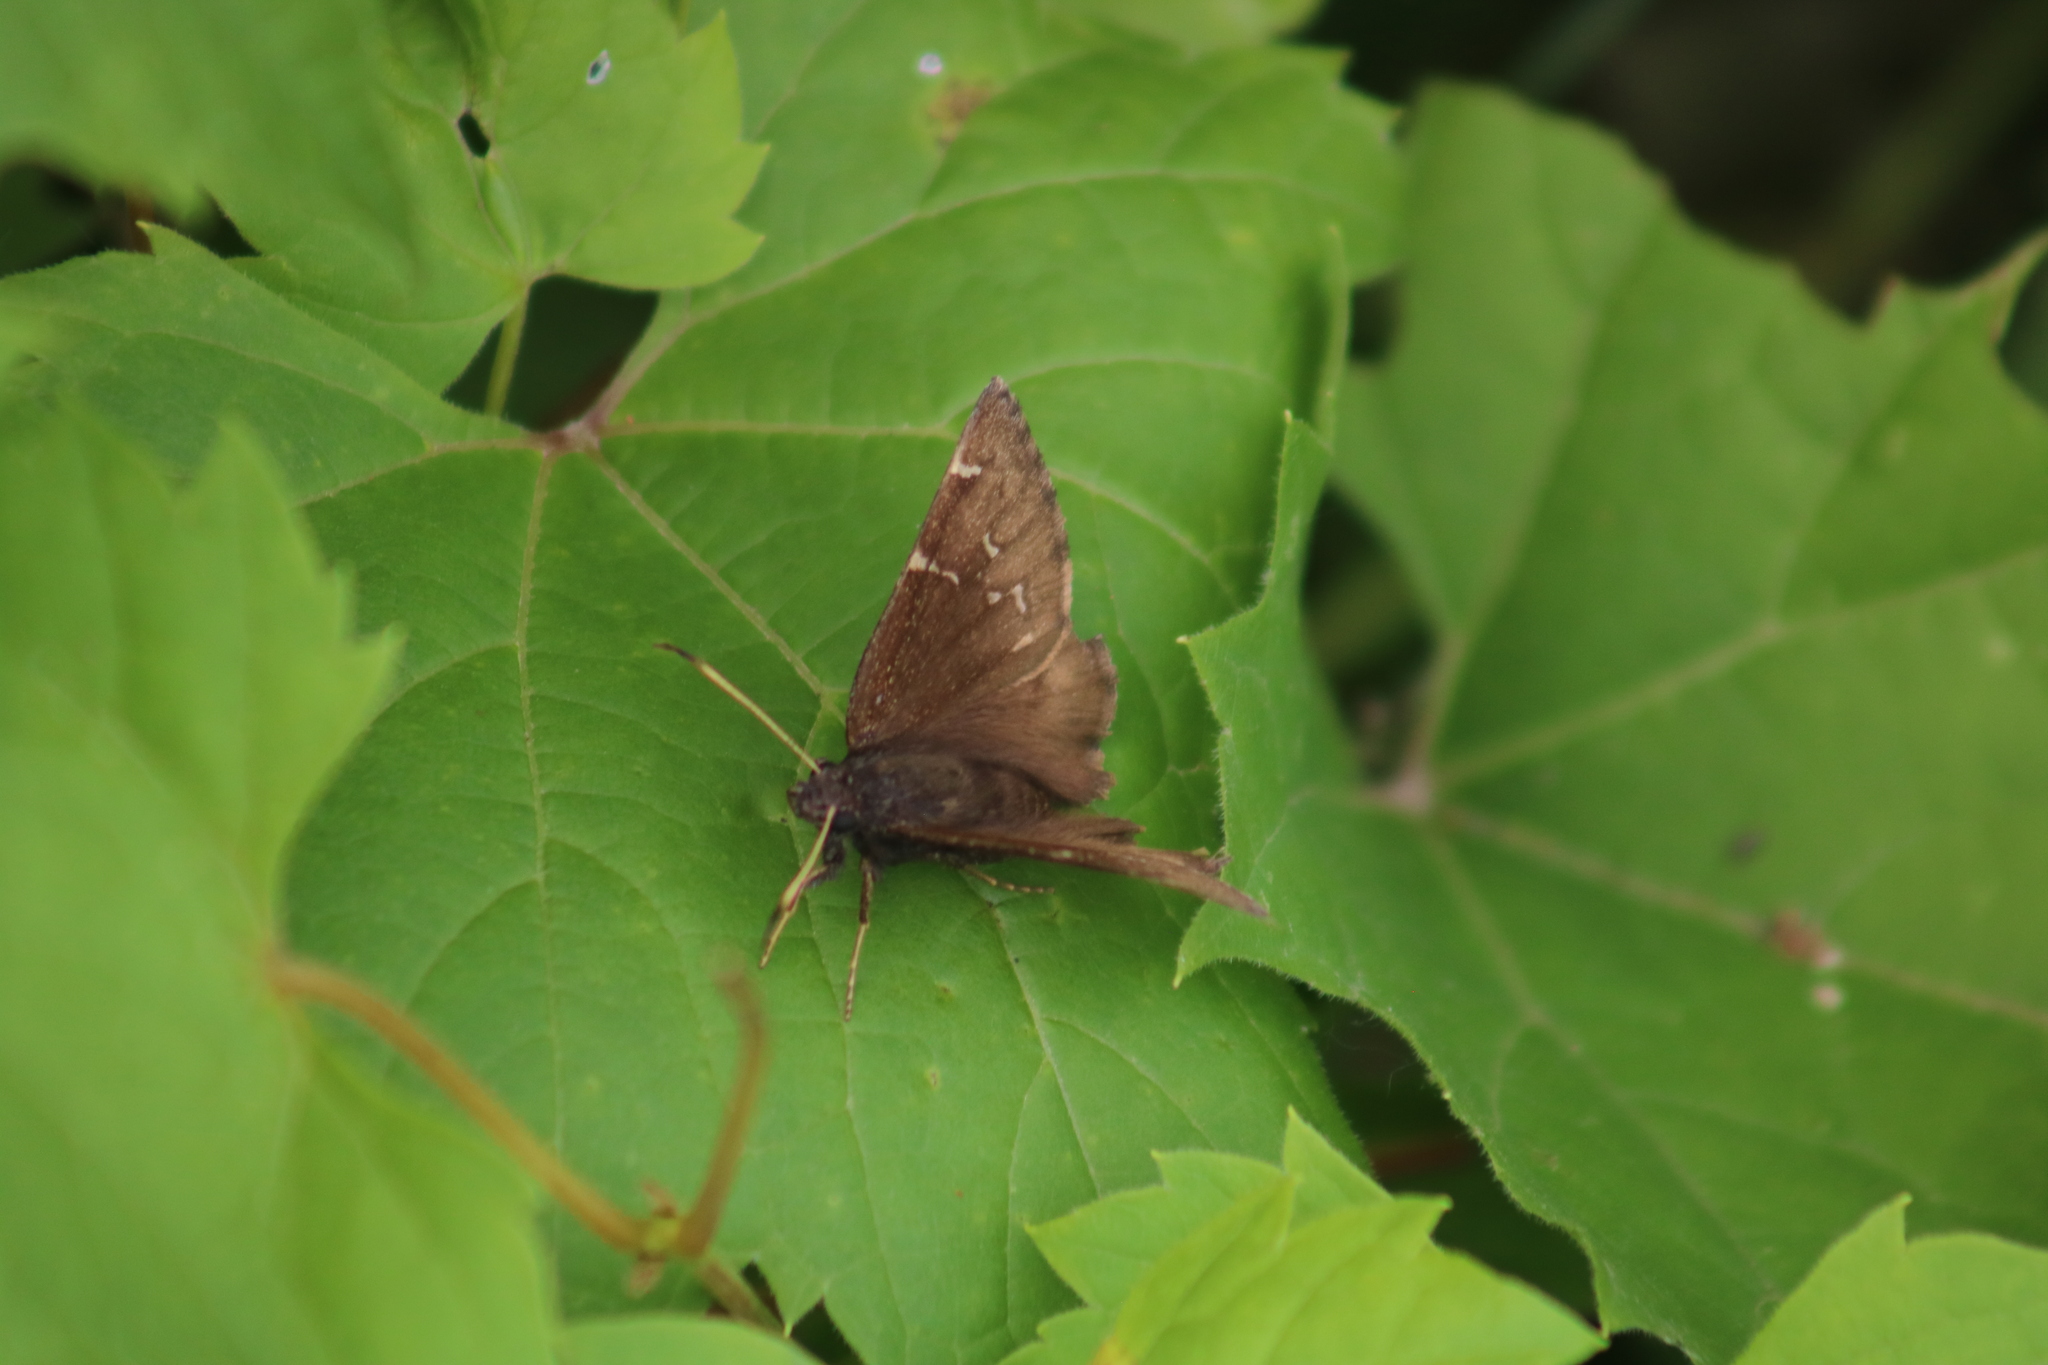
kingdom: Animalia
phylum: Arthropoda
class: Insecta
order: Lepidoptera
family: Hesperiidae
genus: Thorybes
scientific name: Thorybes pylades
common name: Northern cloudywing
